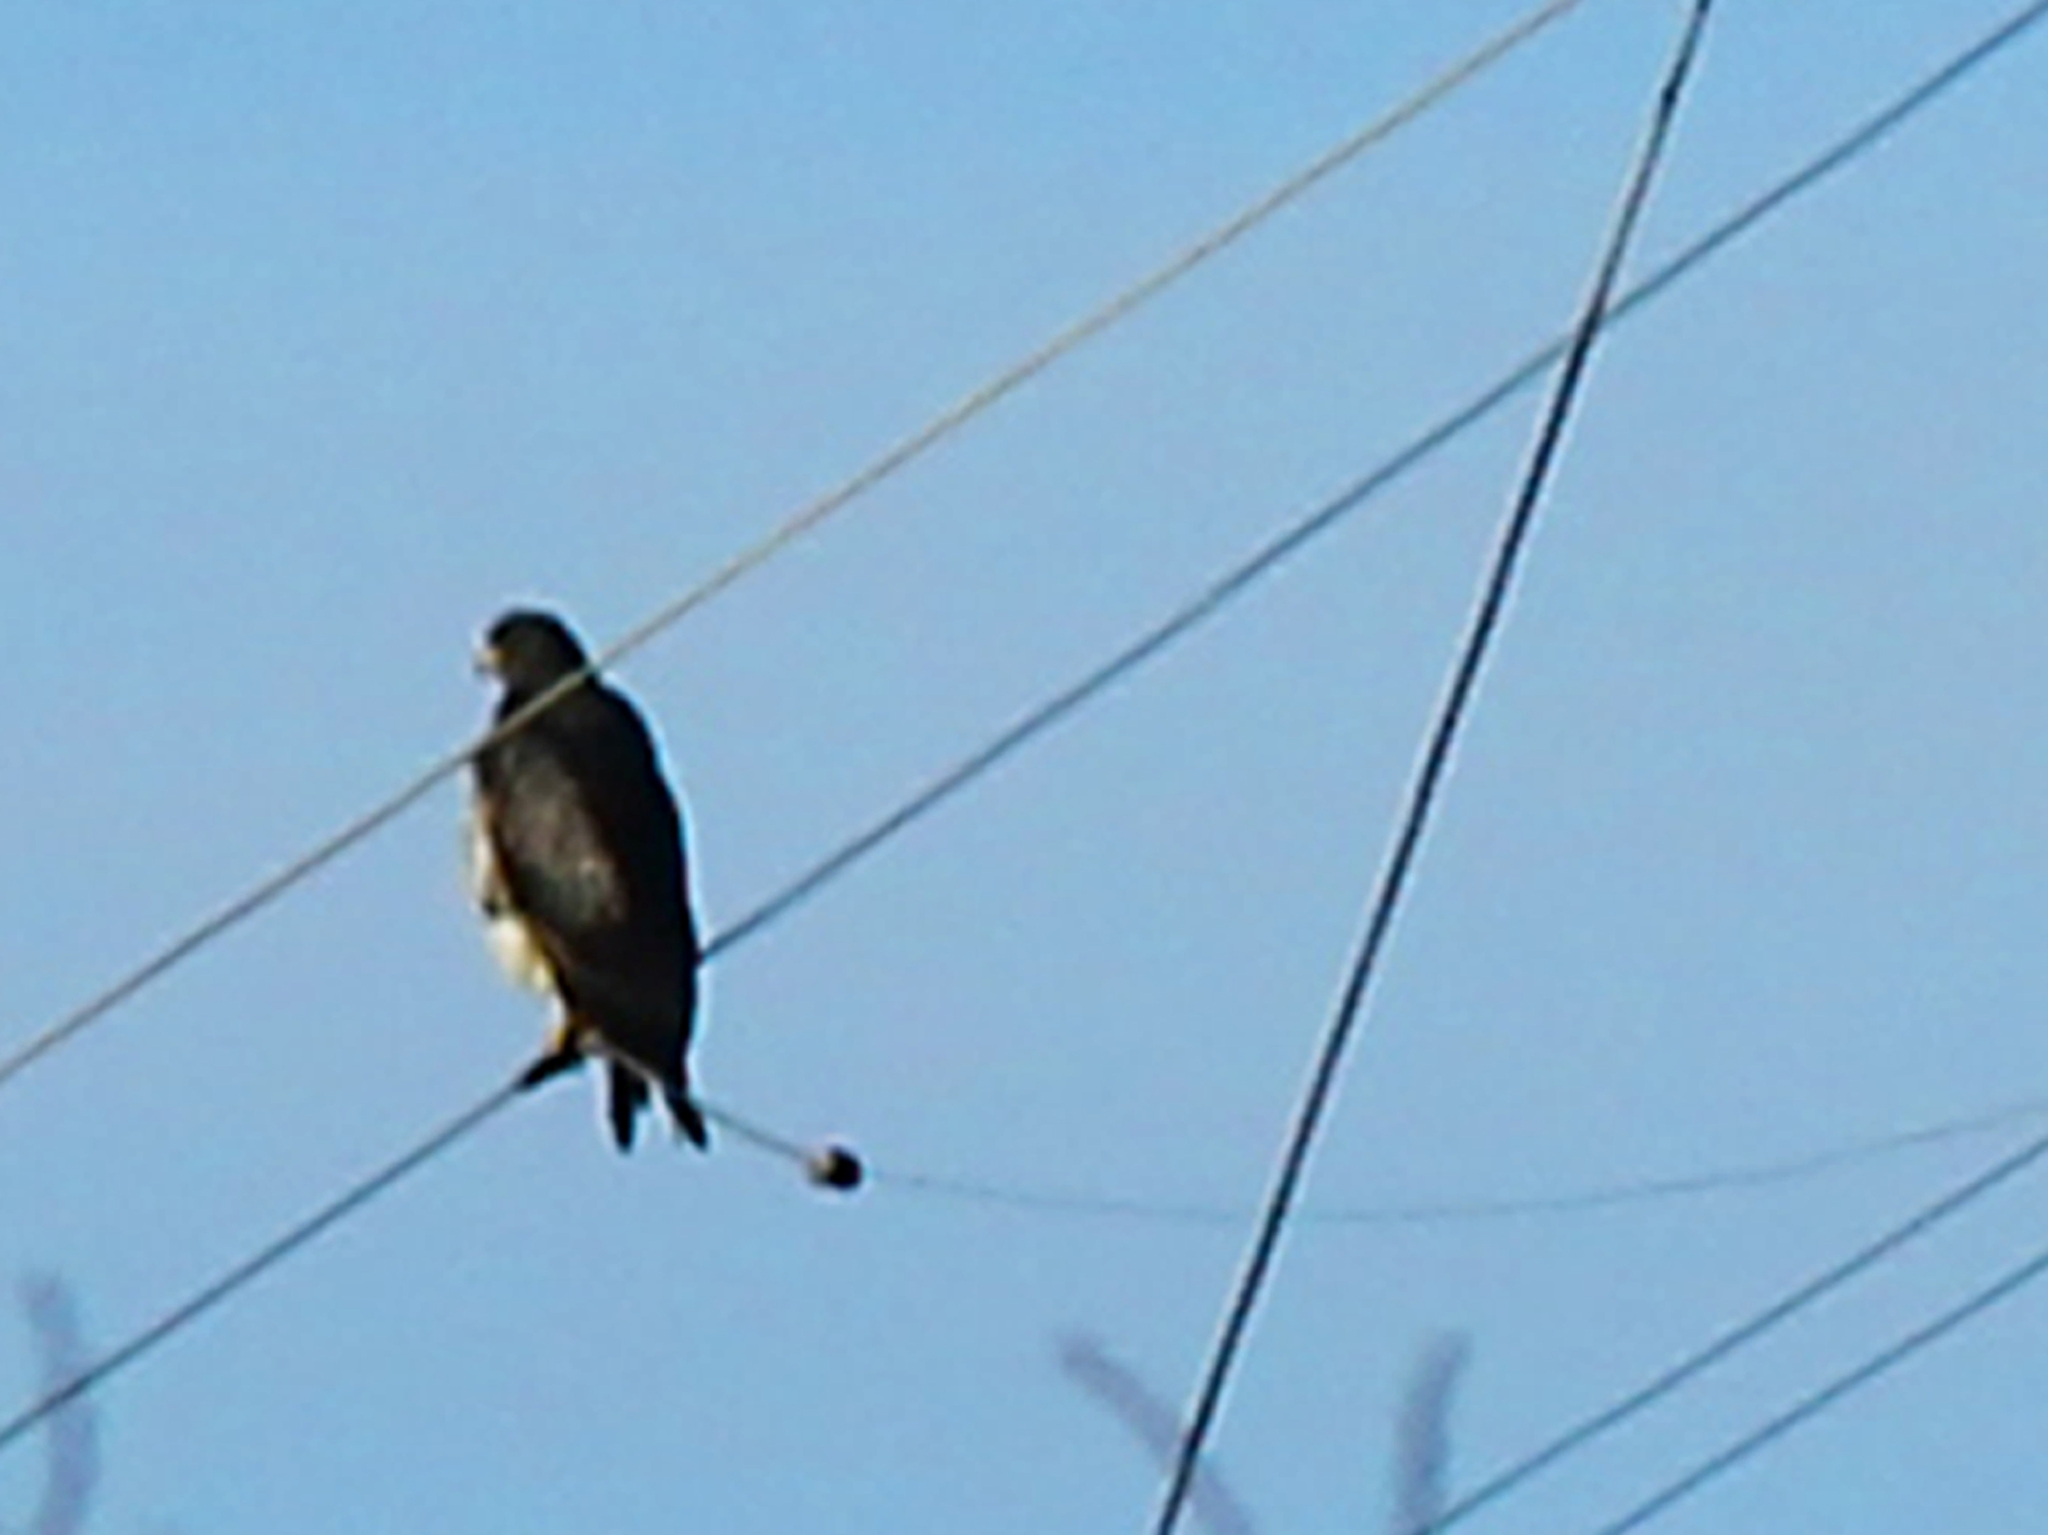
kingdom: Animalia
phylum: Chordata
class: Aves
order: Accipitriformes
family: Accipitridae
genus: Geranoaetus
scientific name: Geranoaetus melanoleucus
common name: Black-chested buzzard-eagle
